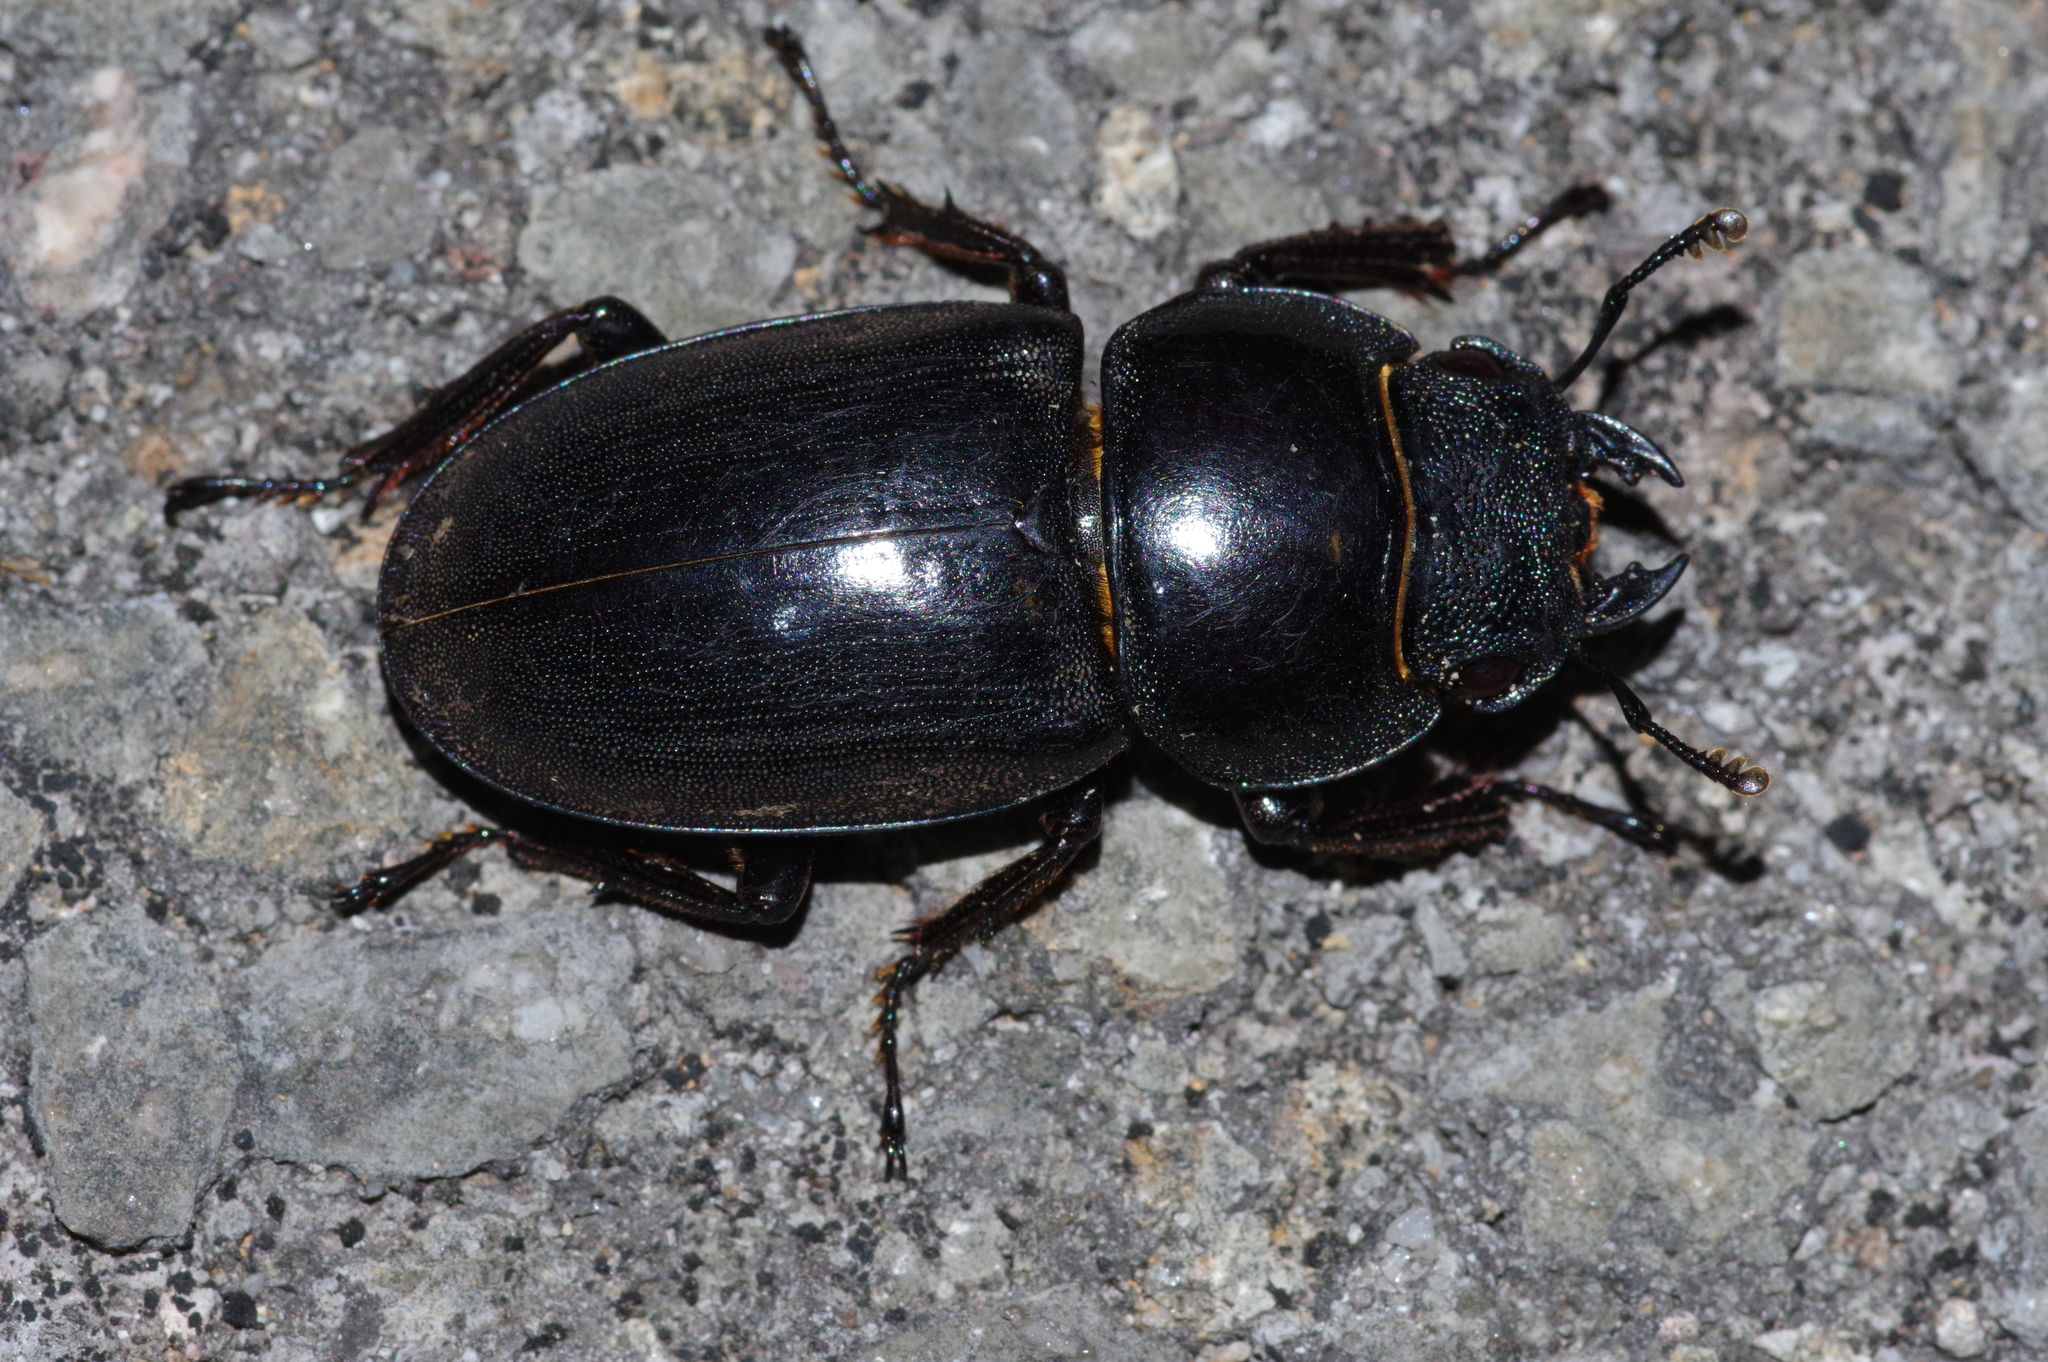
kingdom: Animalia
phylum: Arthropoda
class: Insecta
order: Coleoptera
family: Lucanidae
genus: Serrognathus
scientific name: Serrognathus titanus
